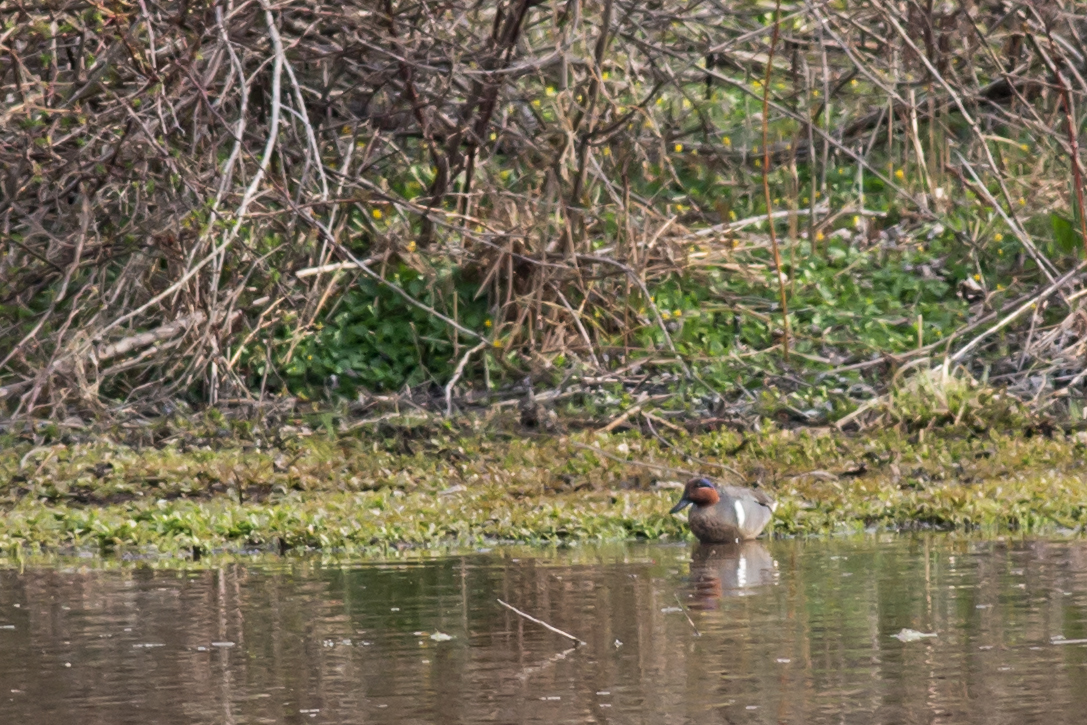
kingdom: Animalia
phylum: Chordata
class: Aves
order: Anseriformes
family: Anatidae
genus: Anas
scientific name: Anas crecca
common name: Eurasian teal
